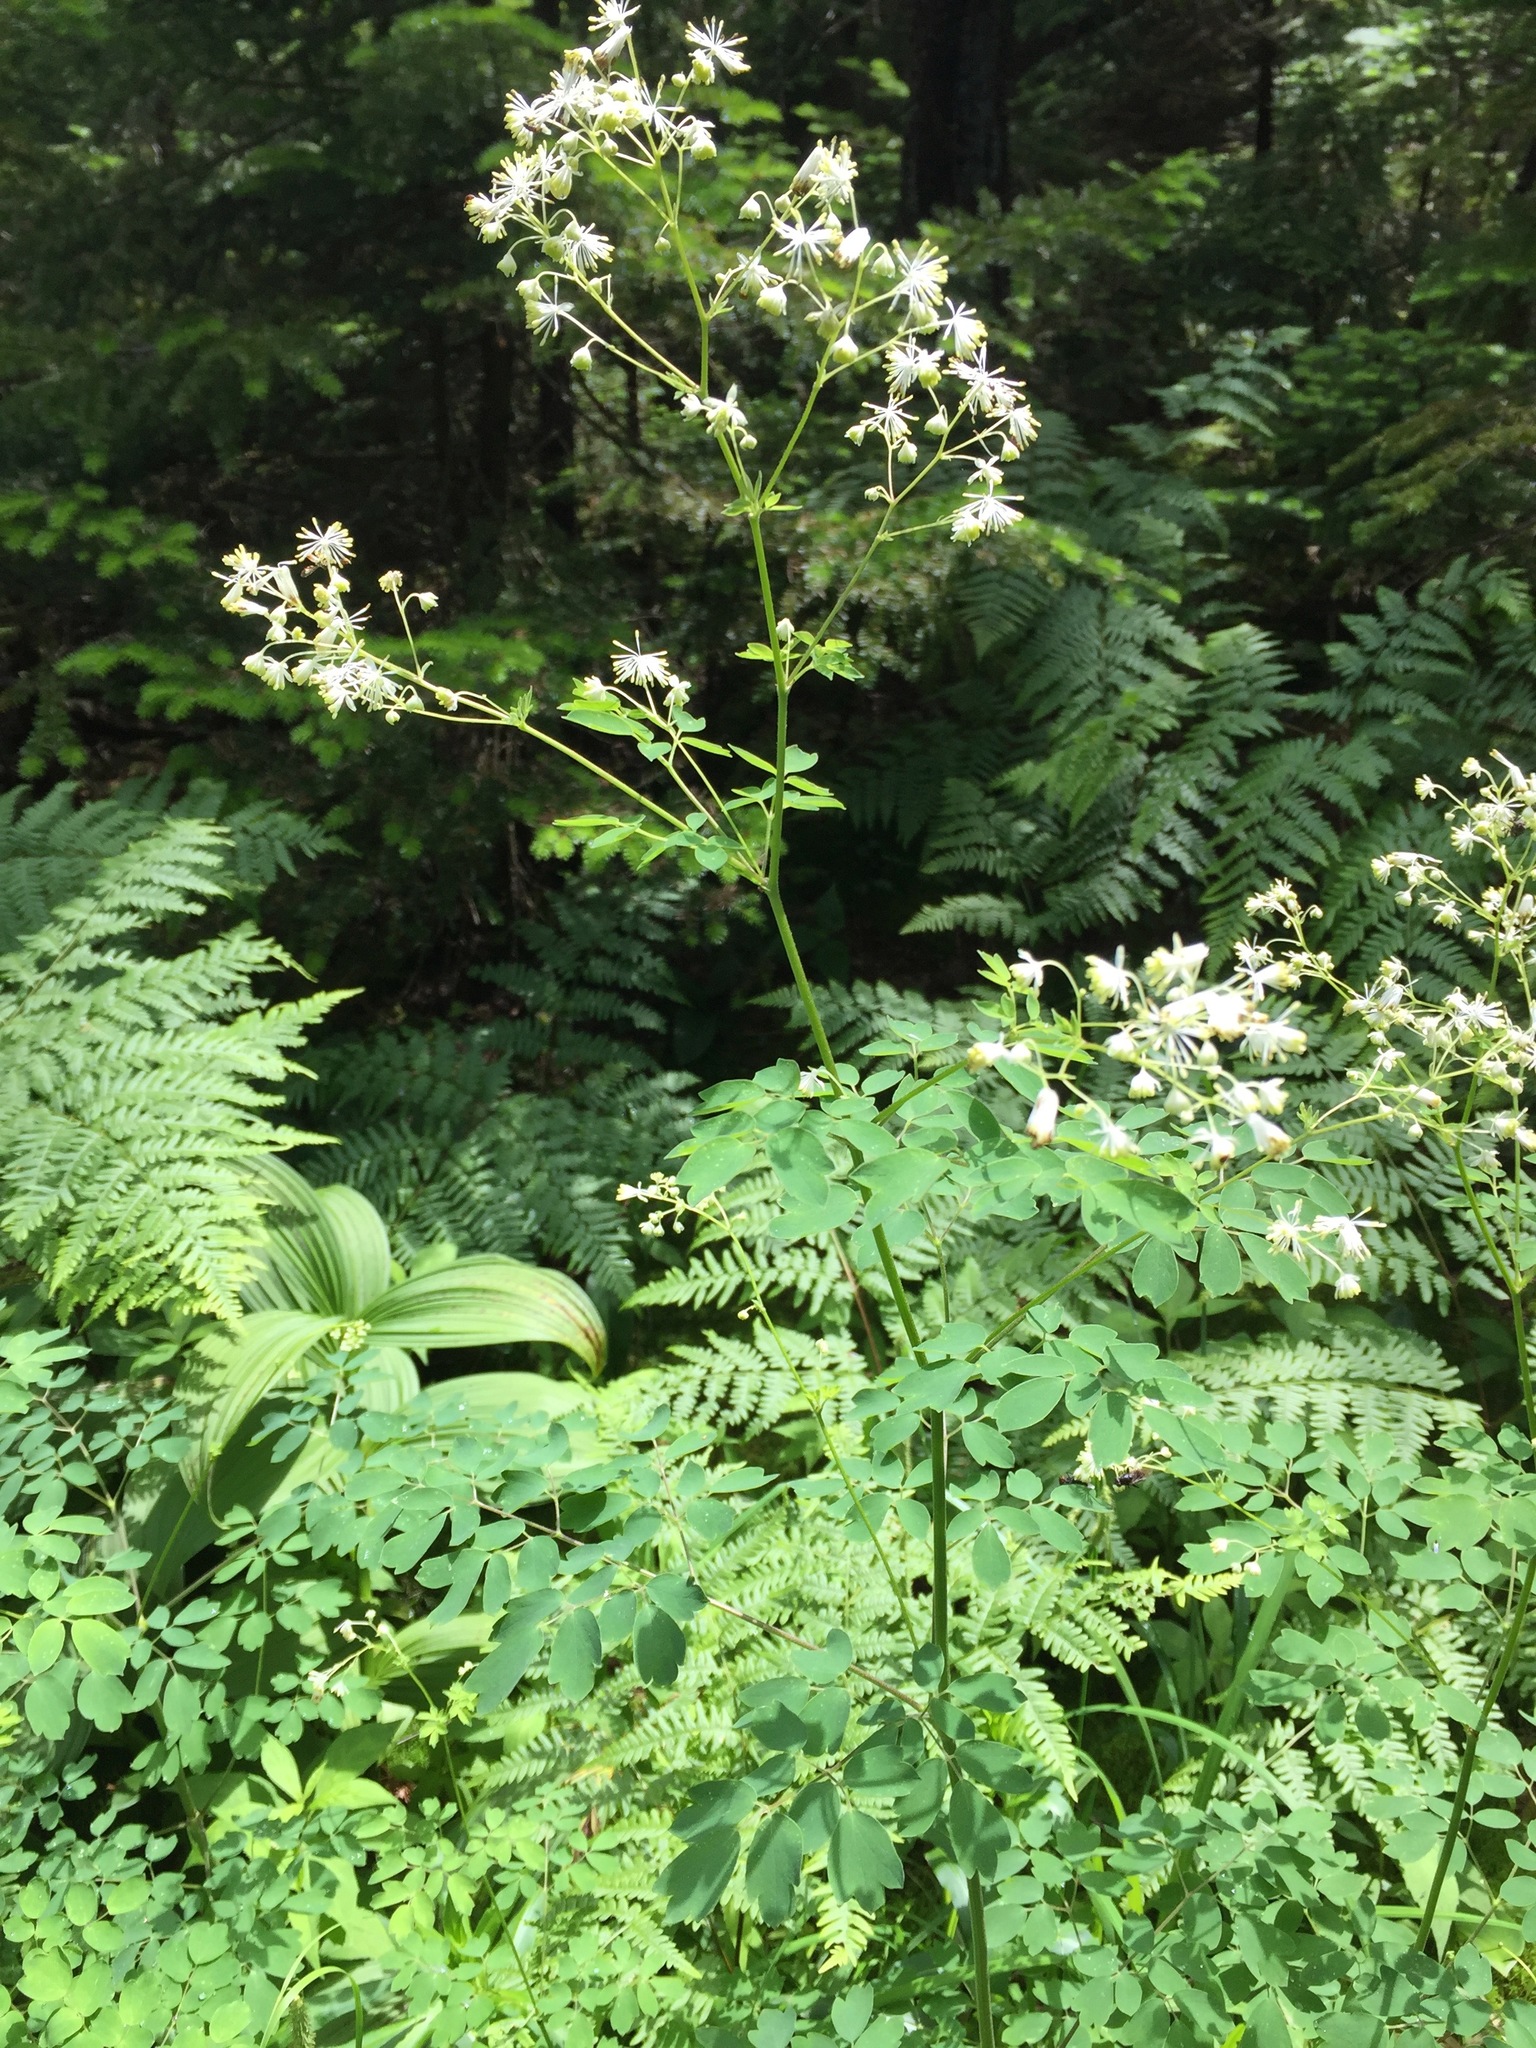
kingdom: Plantae
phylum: Tracheophyta
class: Magnoliopsida
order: Ranunculales
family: Ranunculaceae
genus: Thalictrum
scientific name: Thalictrum pubescens
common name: King-of-the-meadow
